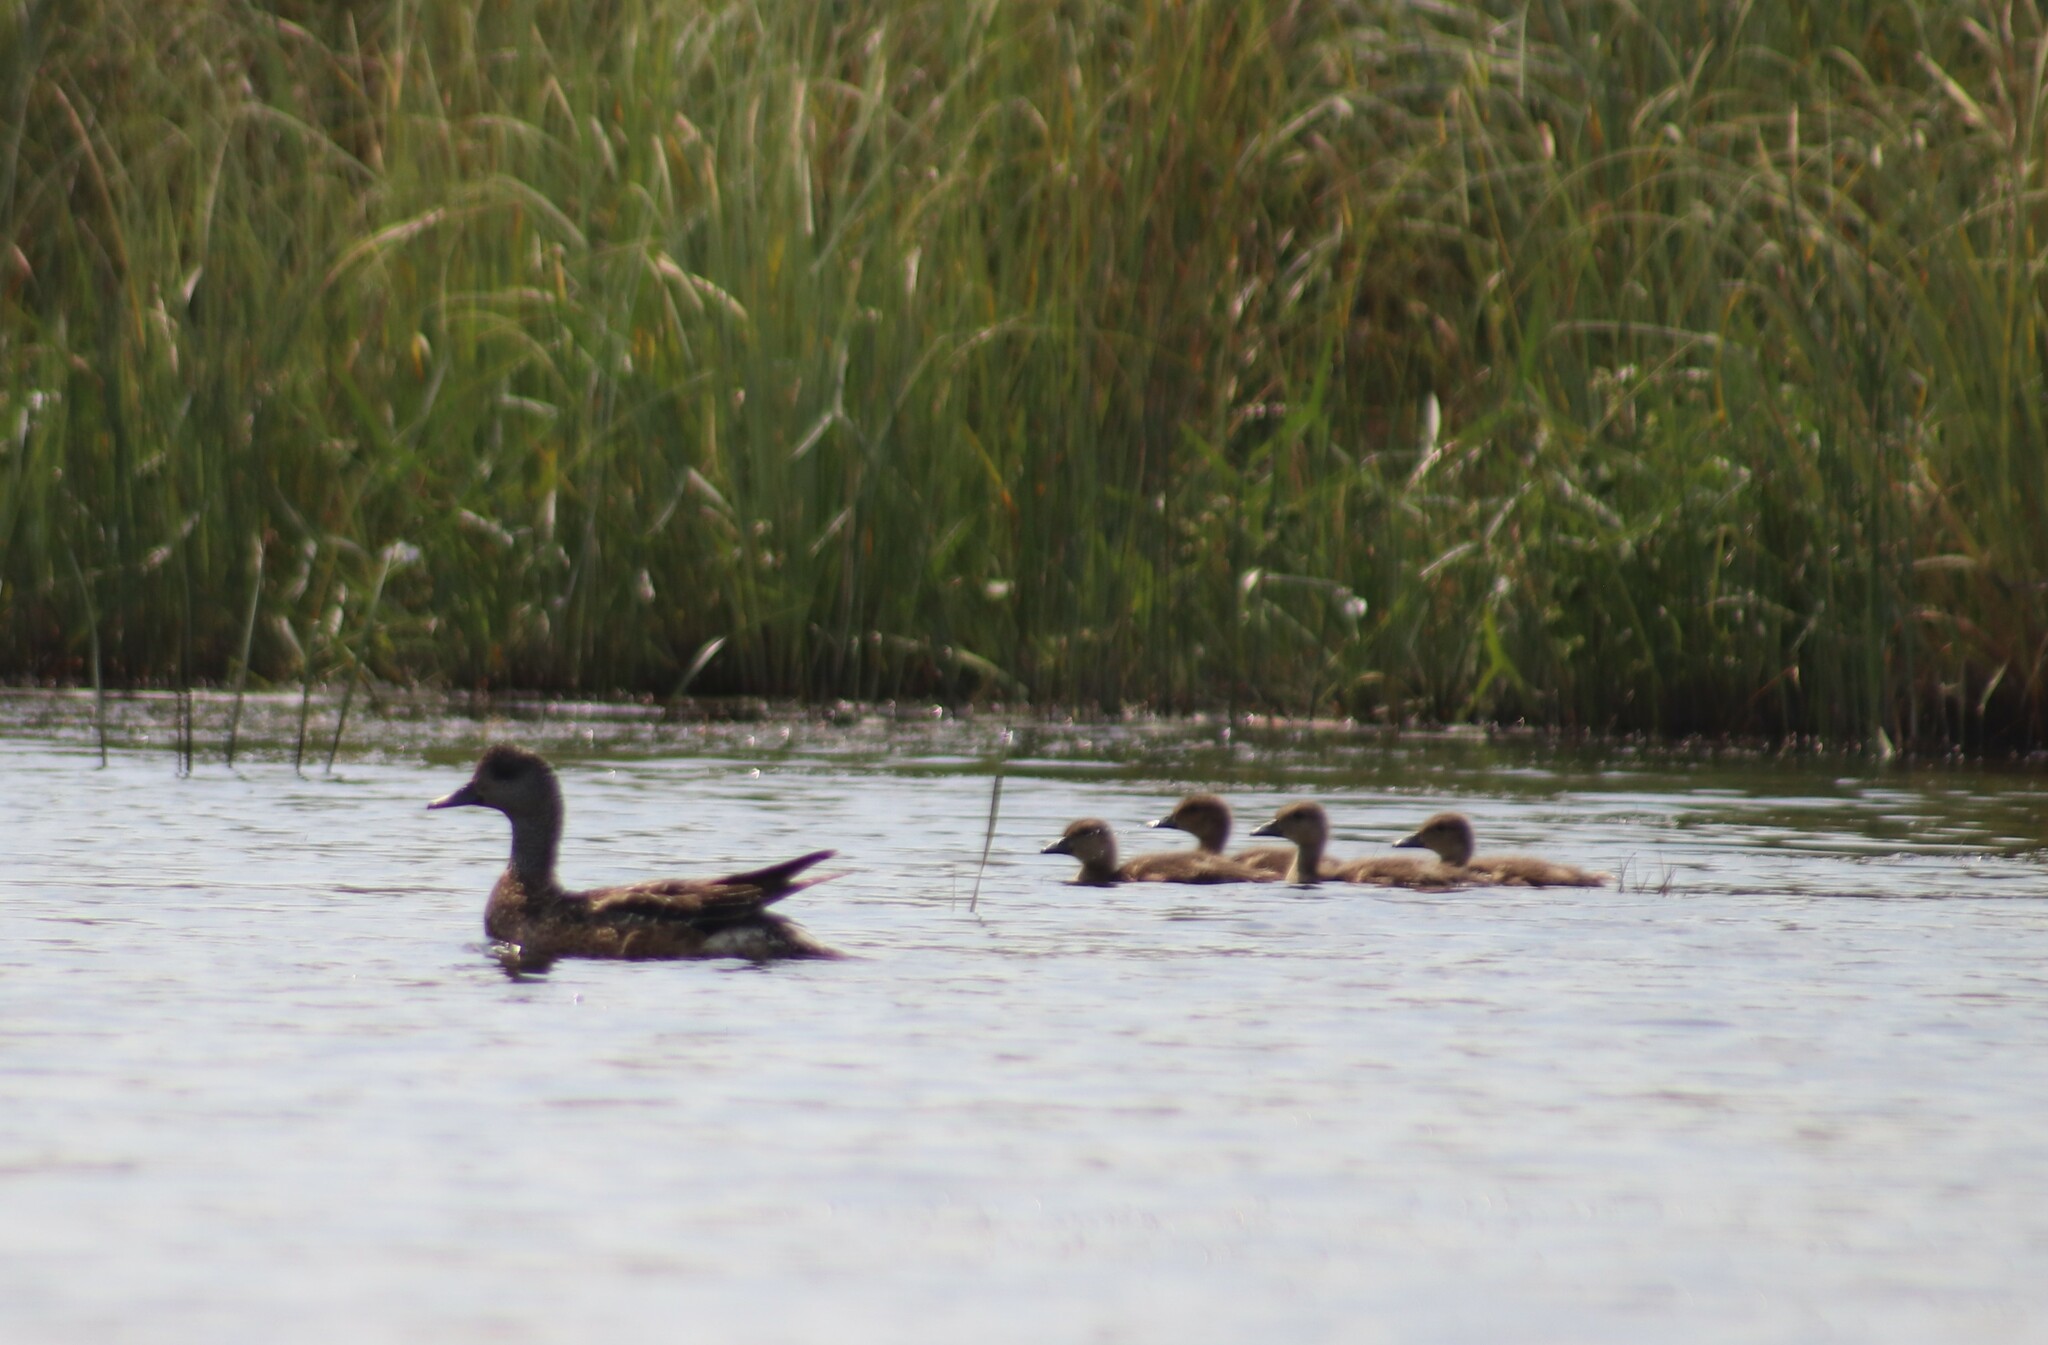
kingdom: Animalia
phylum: Chordata
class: Aves
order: Anseriformes
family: Anatidae
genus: Mareca
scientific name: Mareca americana
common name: American wigeon
